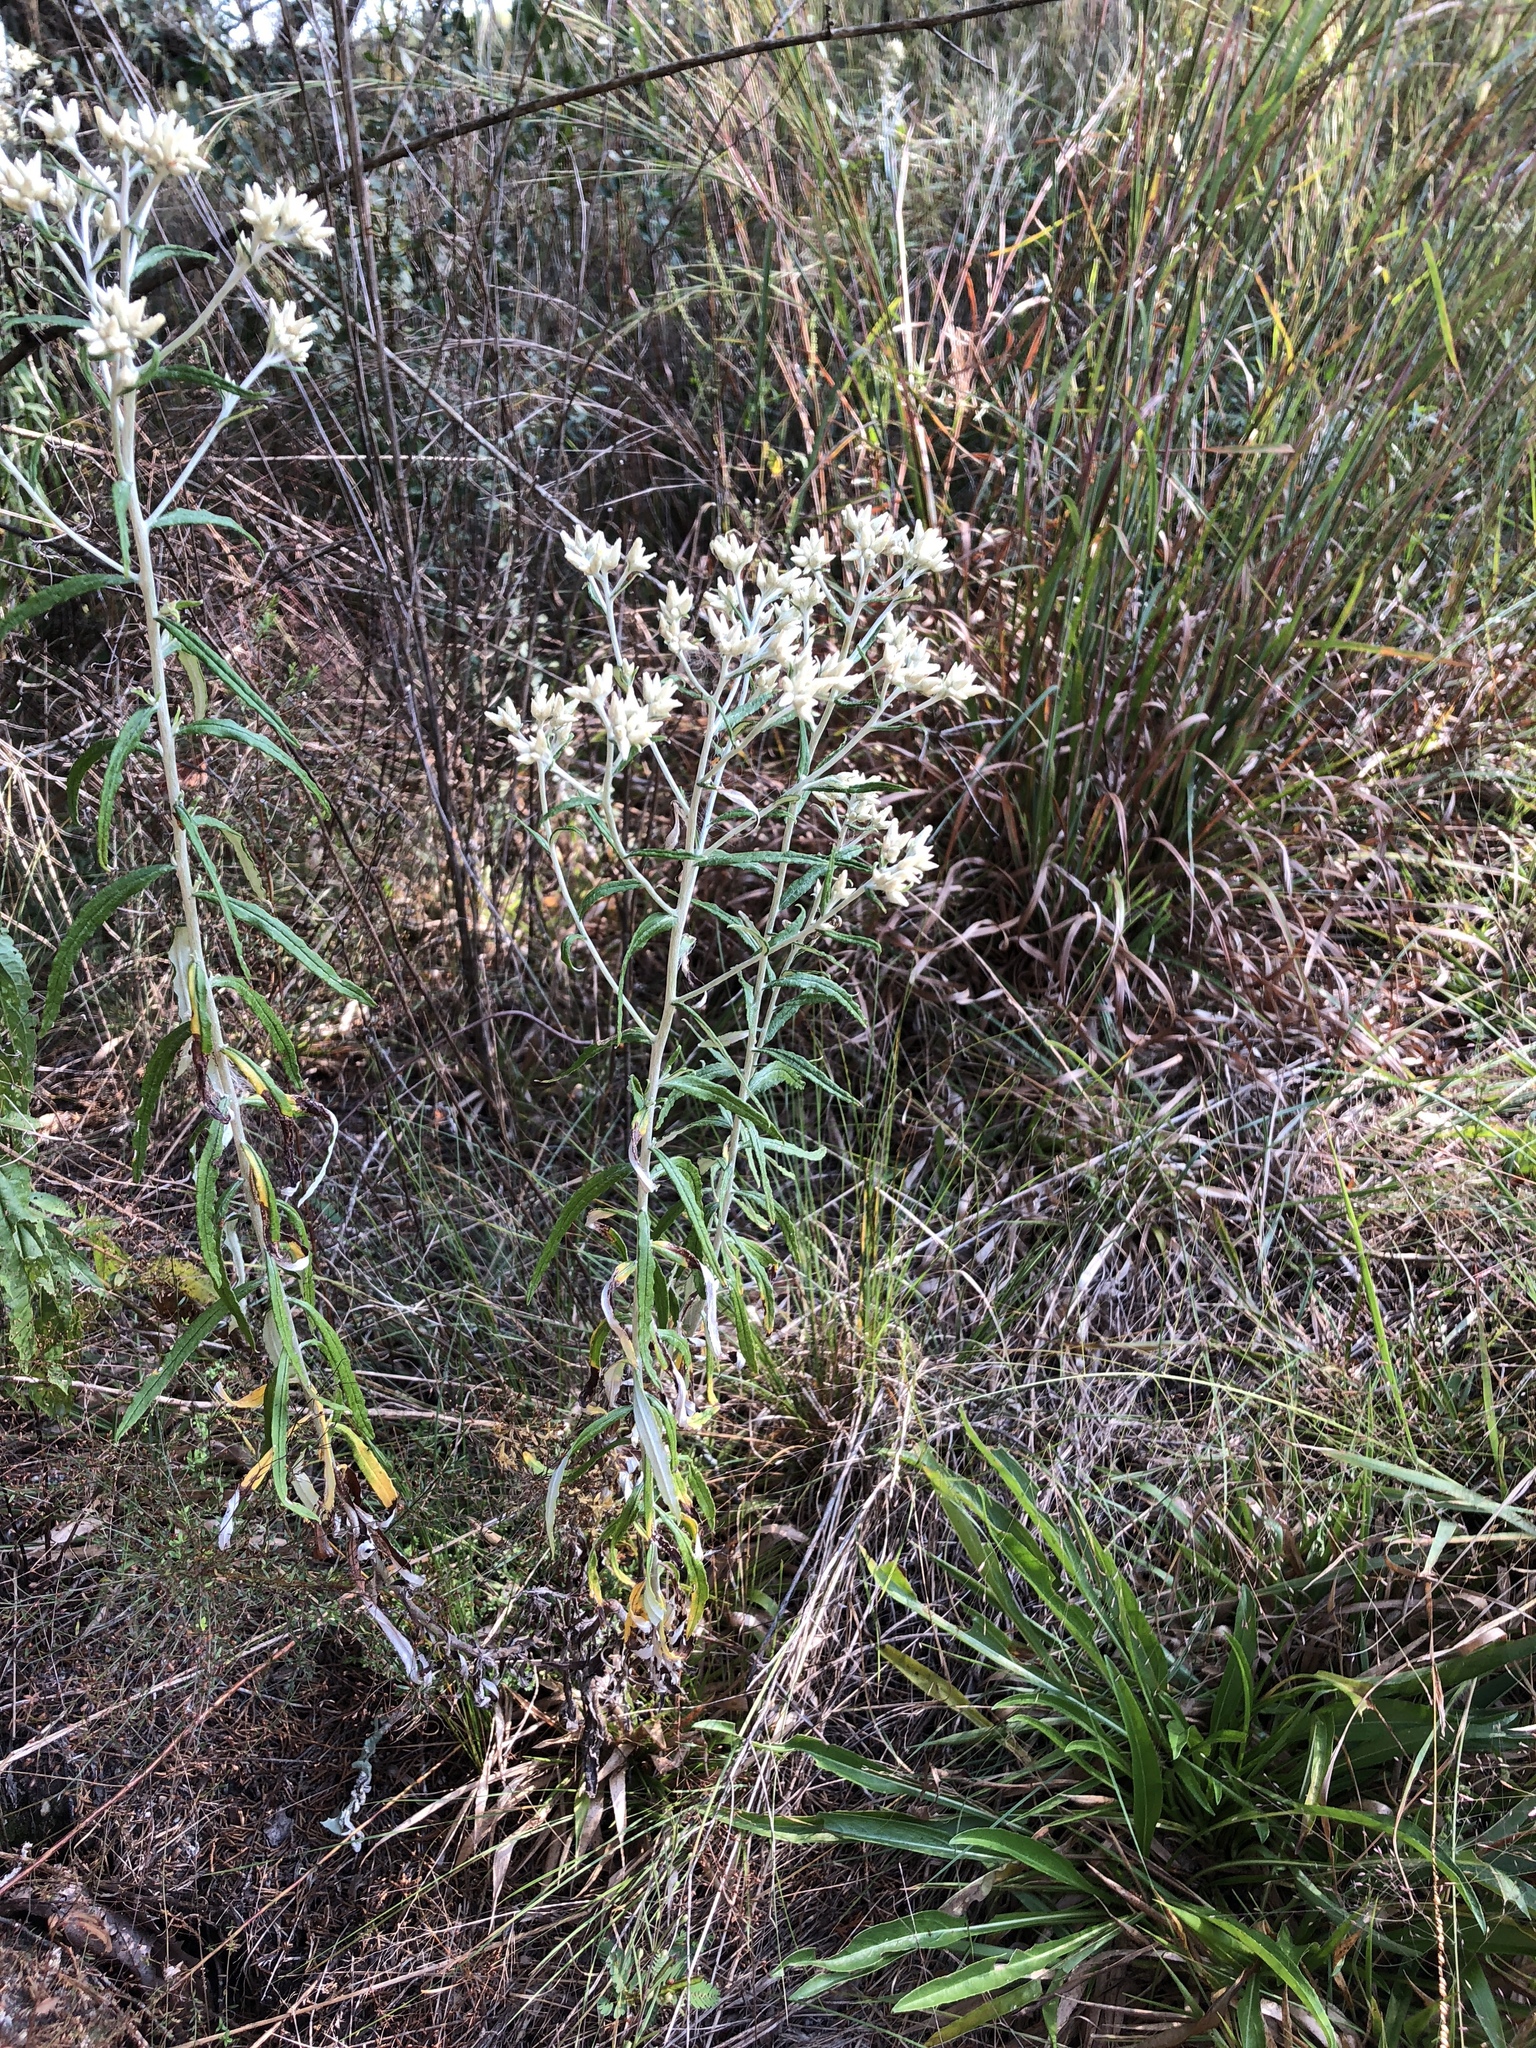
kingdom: Plantae
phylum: Tracheophyta
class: Magnoliopsida
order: Asterales
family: Asteraceae
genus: Pseudognaphalium
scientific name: Pseudognaphalium obtusifolium
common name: Eastern rabbit-tobacco
